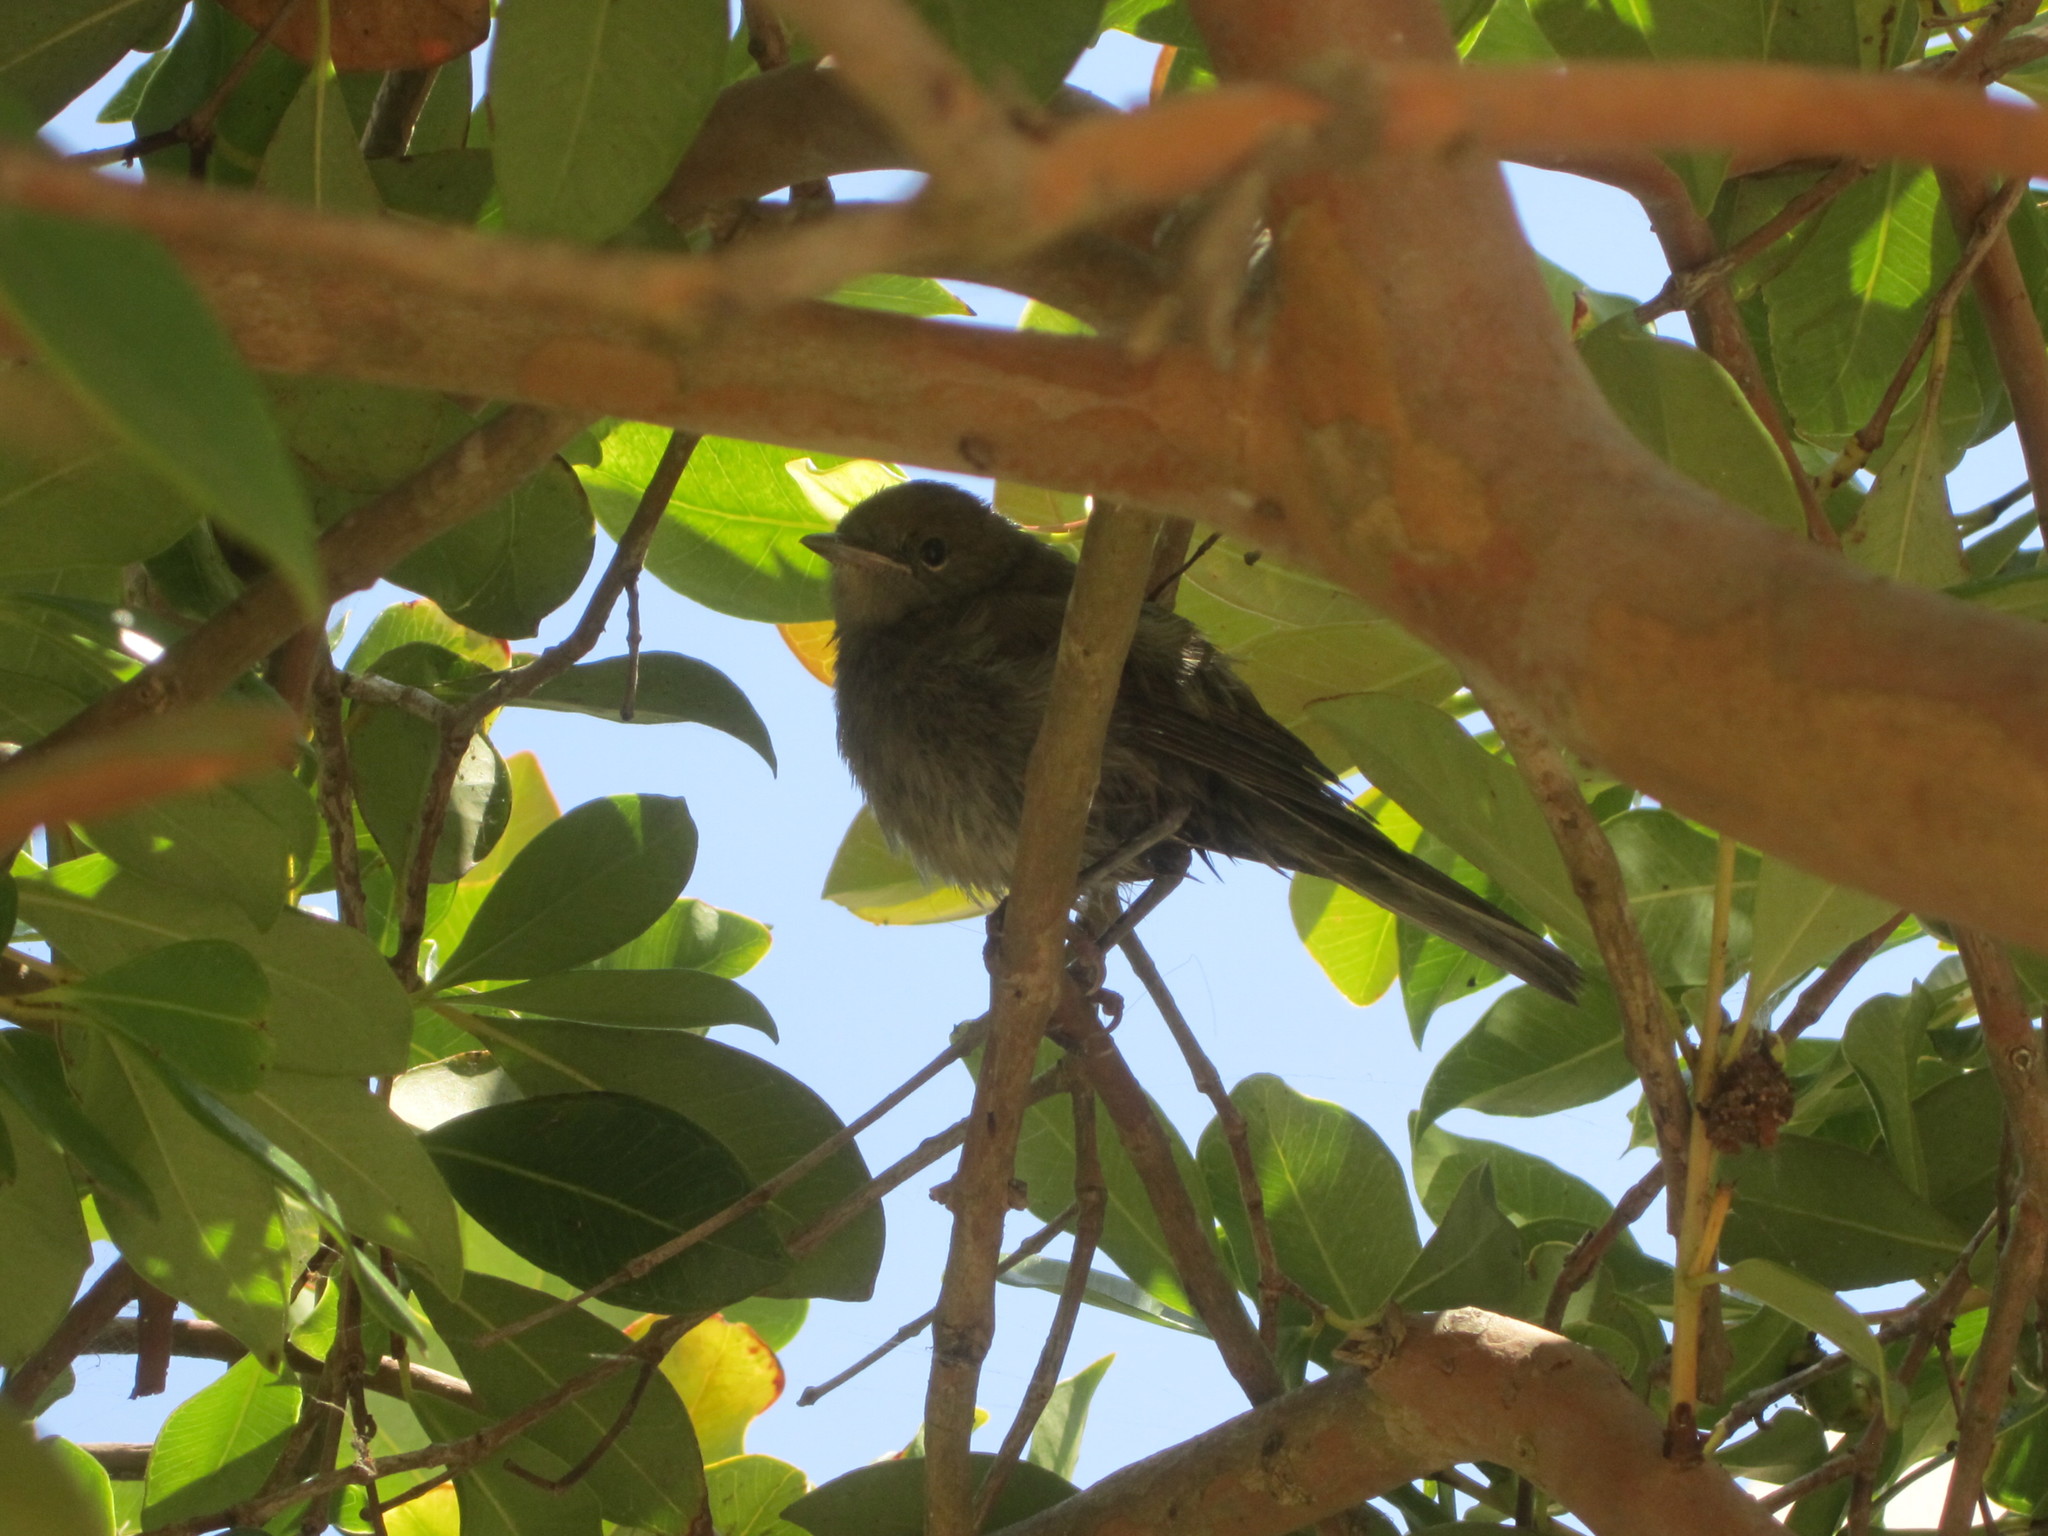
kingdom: Animalia
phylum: Chordata
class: Aves
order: Passeriformes
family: Muscicapidae
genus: Phoenicurus
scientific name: Phoenicurus ochruros
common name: Black redstart
